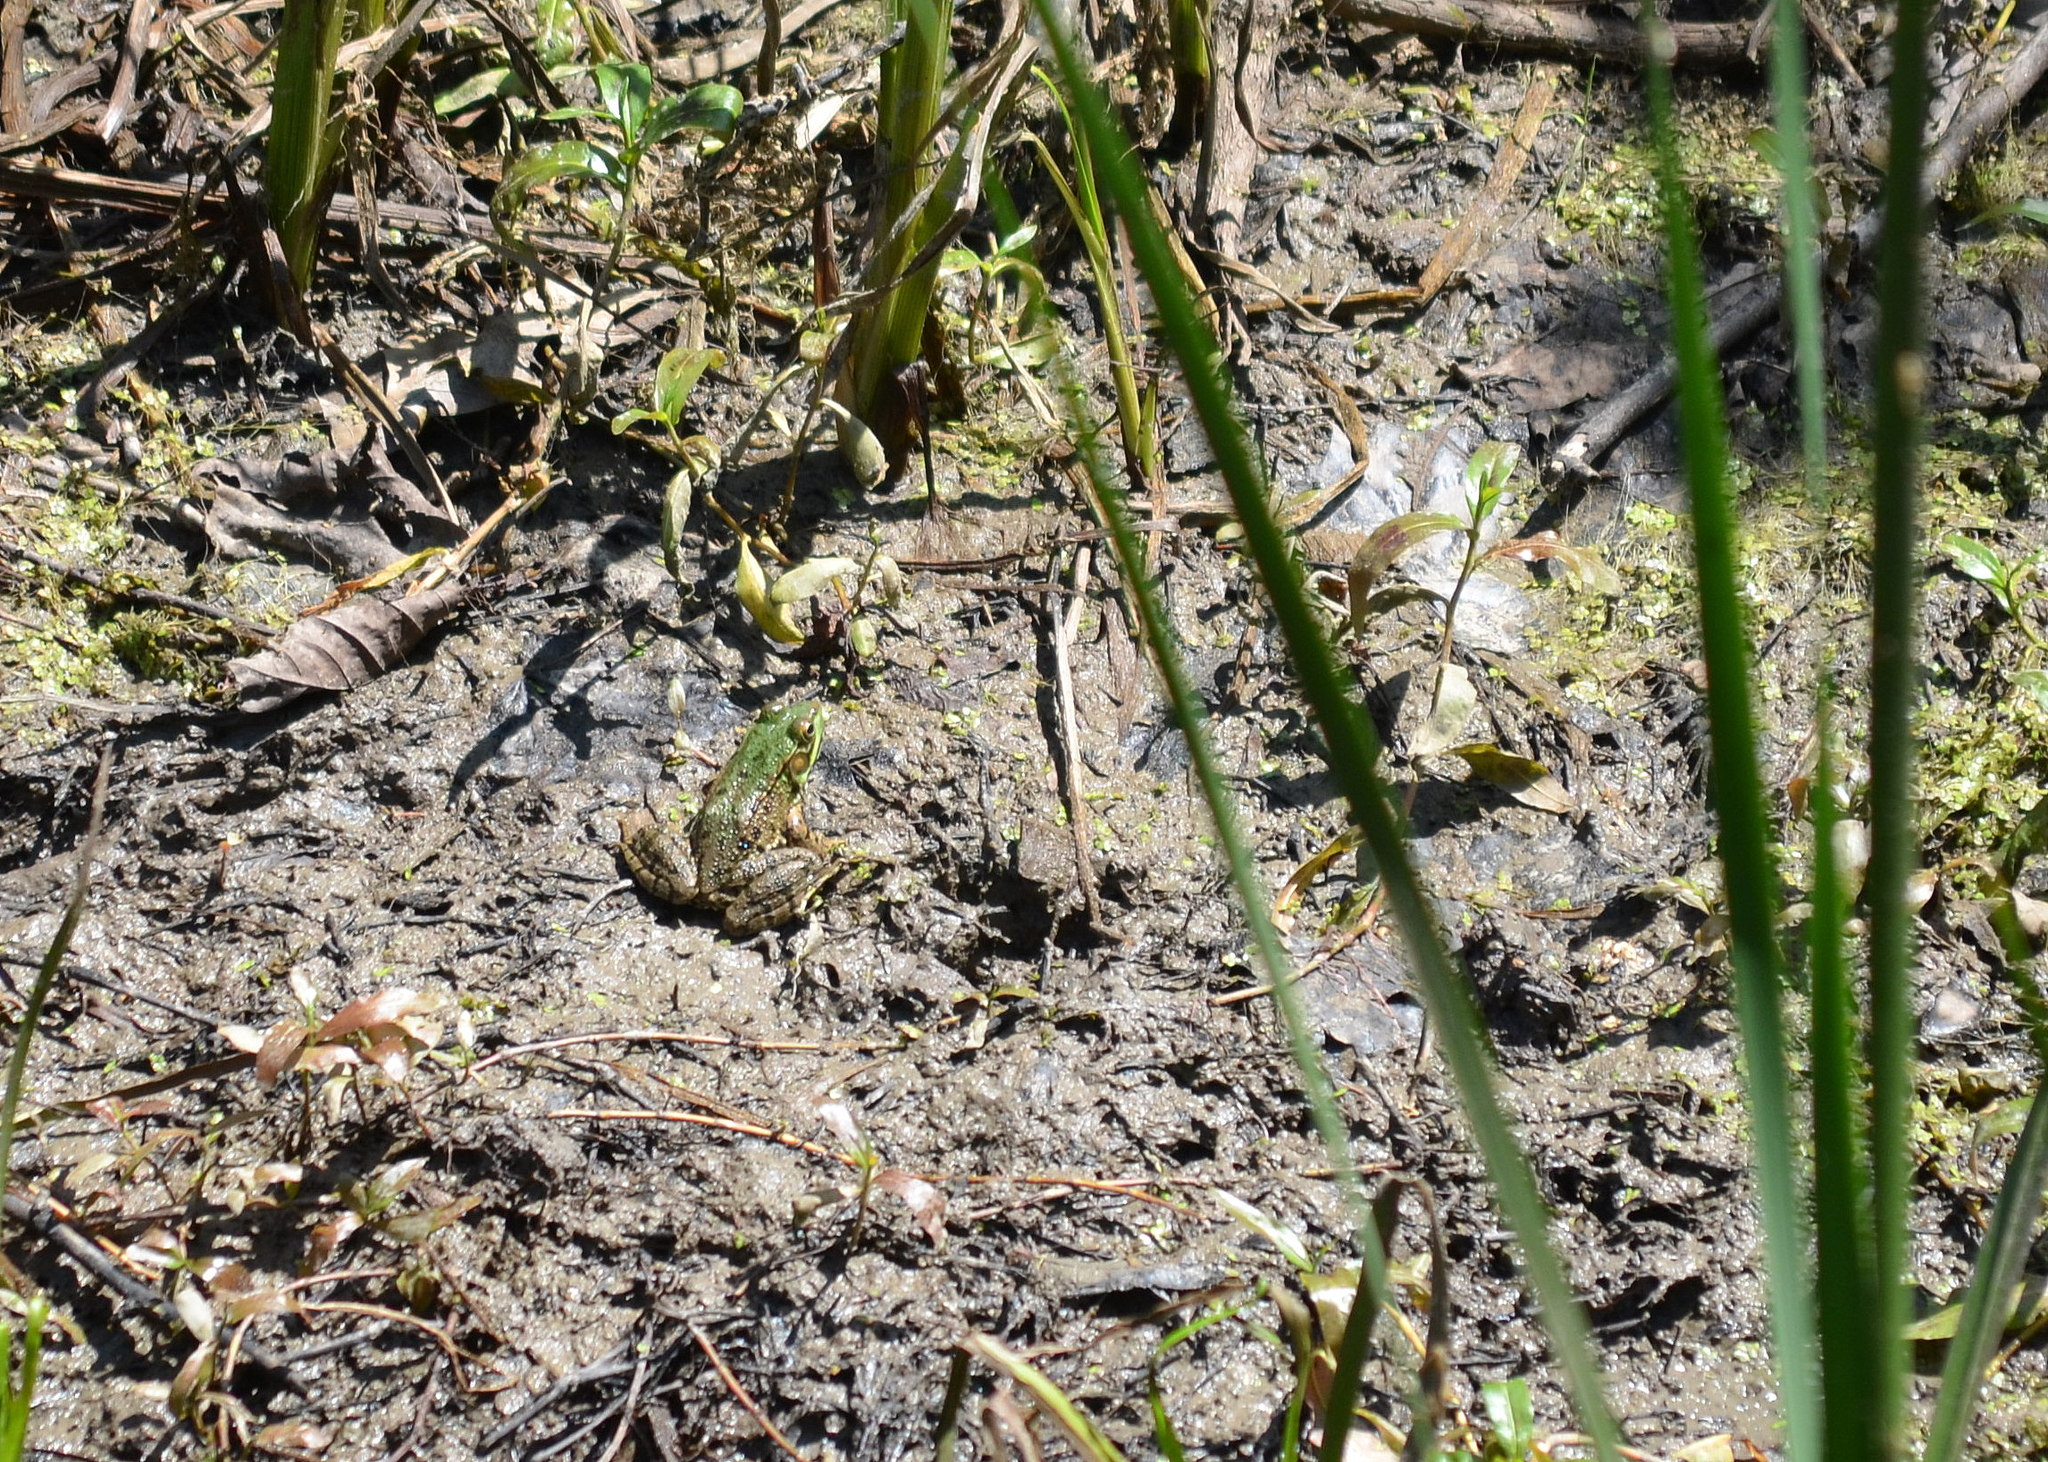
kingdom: Animalia
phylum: Chordata
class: Amphibia
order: Anura
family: Ranidae
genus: Lithobates
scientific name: Lithobates clamitans
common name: Green frog
